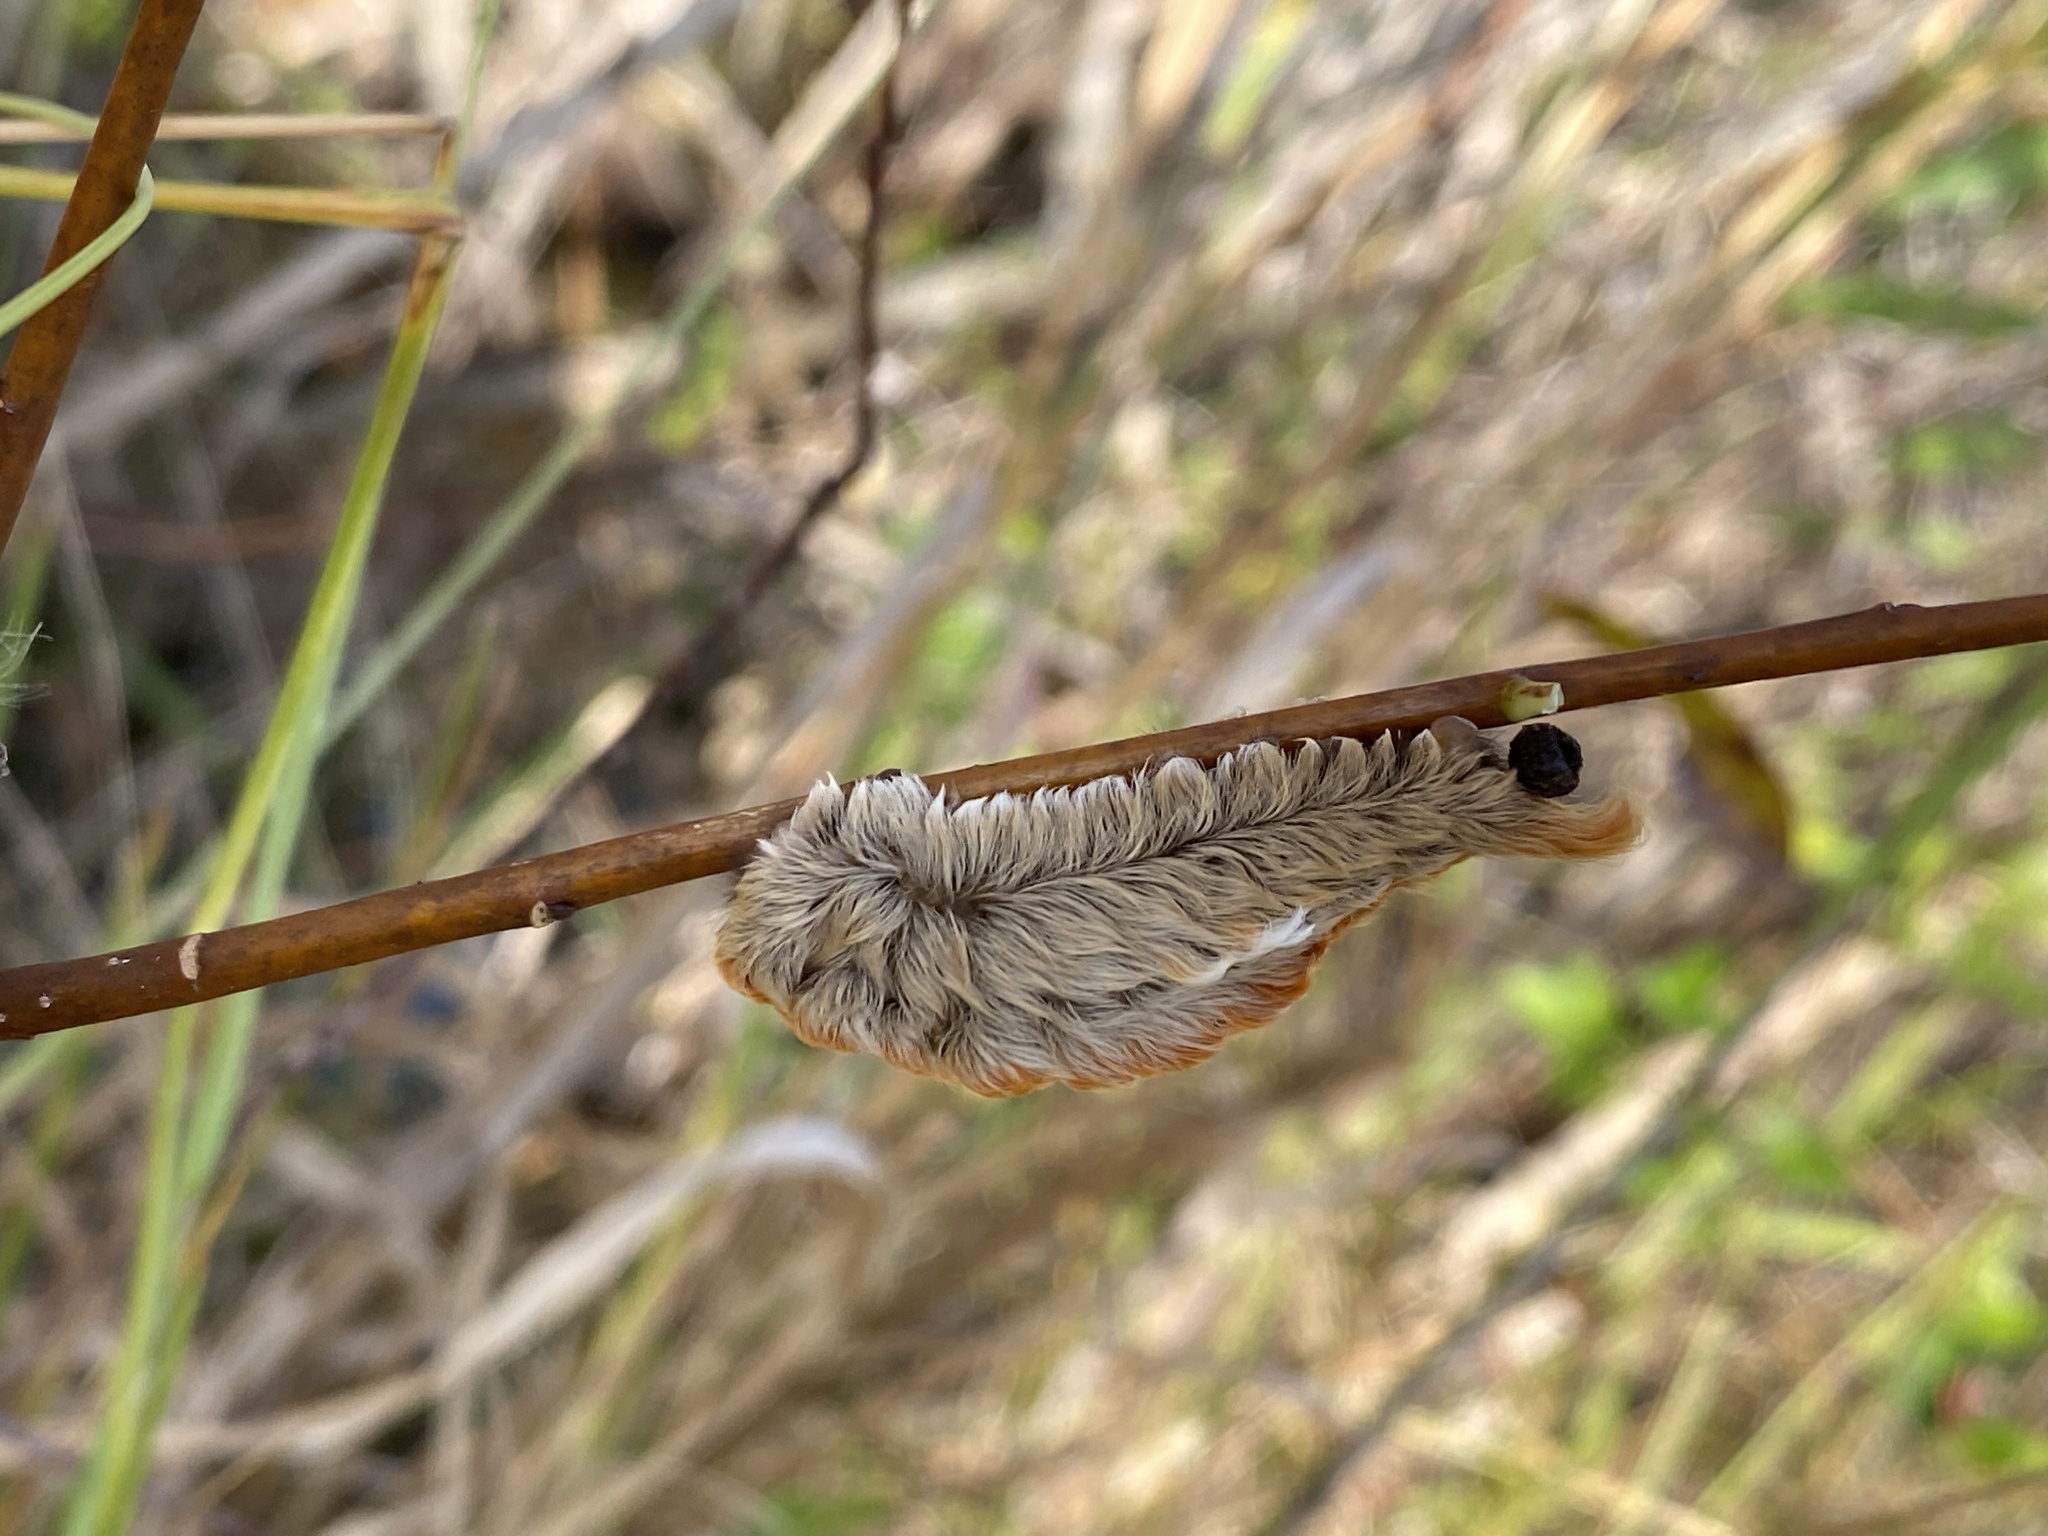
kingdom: Animalia
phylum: Arthropoda
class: Insecta
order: Lepidoptera
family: Megalopygidae
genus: Megalopyge
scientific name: Megalopyge opercularis
